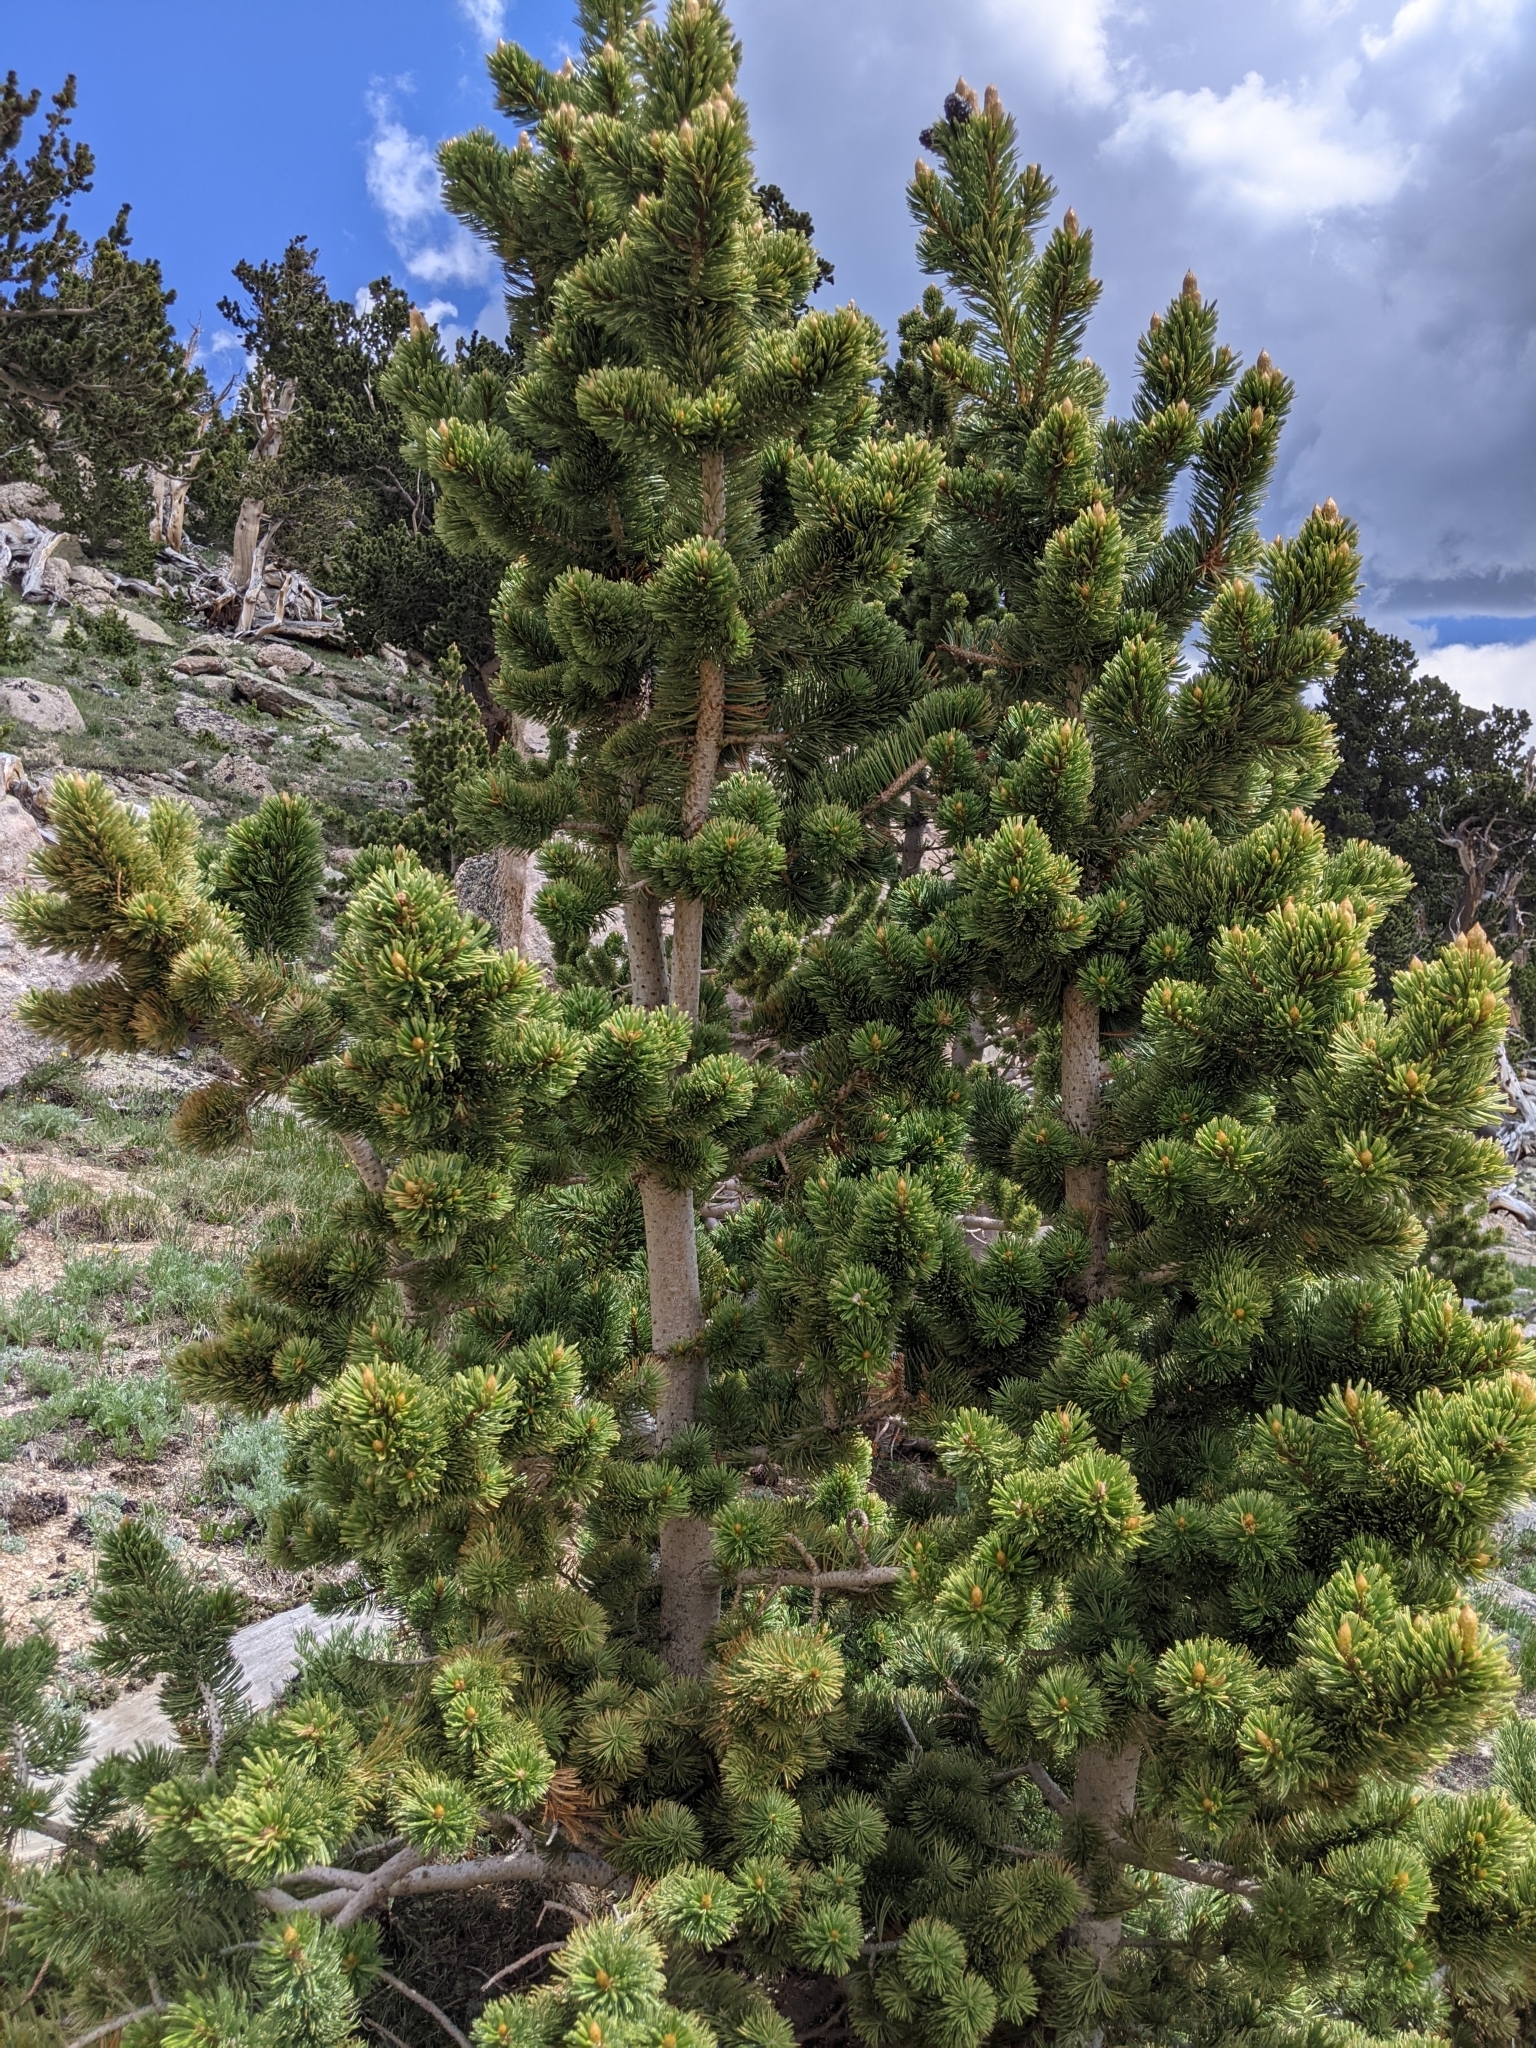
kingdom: Plantae
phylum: Tracheophyta
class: Pinopsida
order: Pinales
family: Pinaceae
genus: Pinus
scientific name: Pinus aristata
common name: Colorado bristlecone pine
